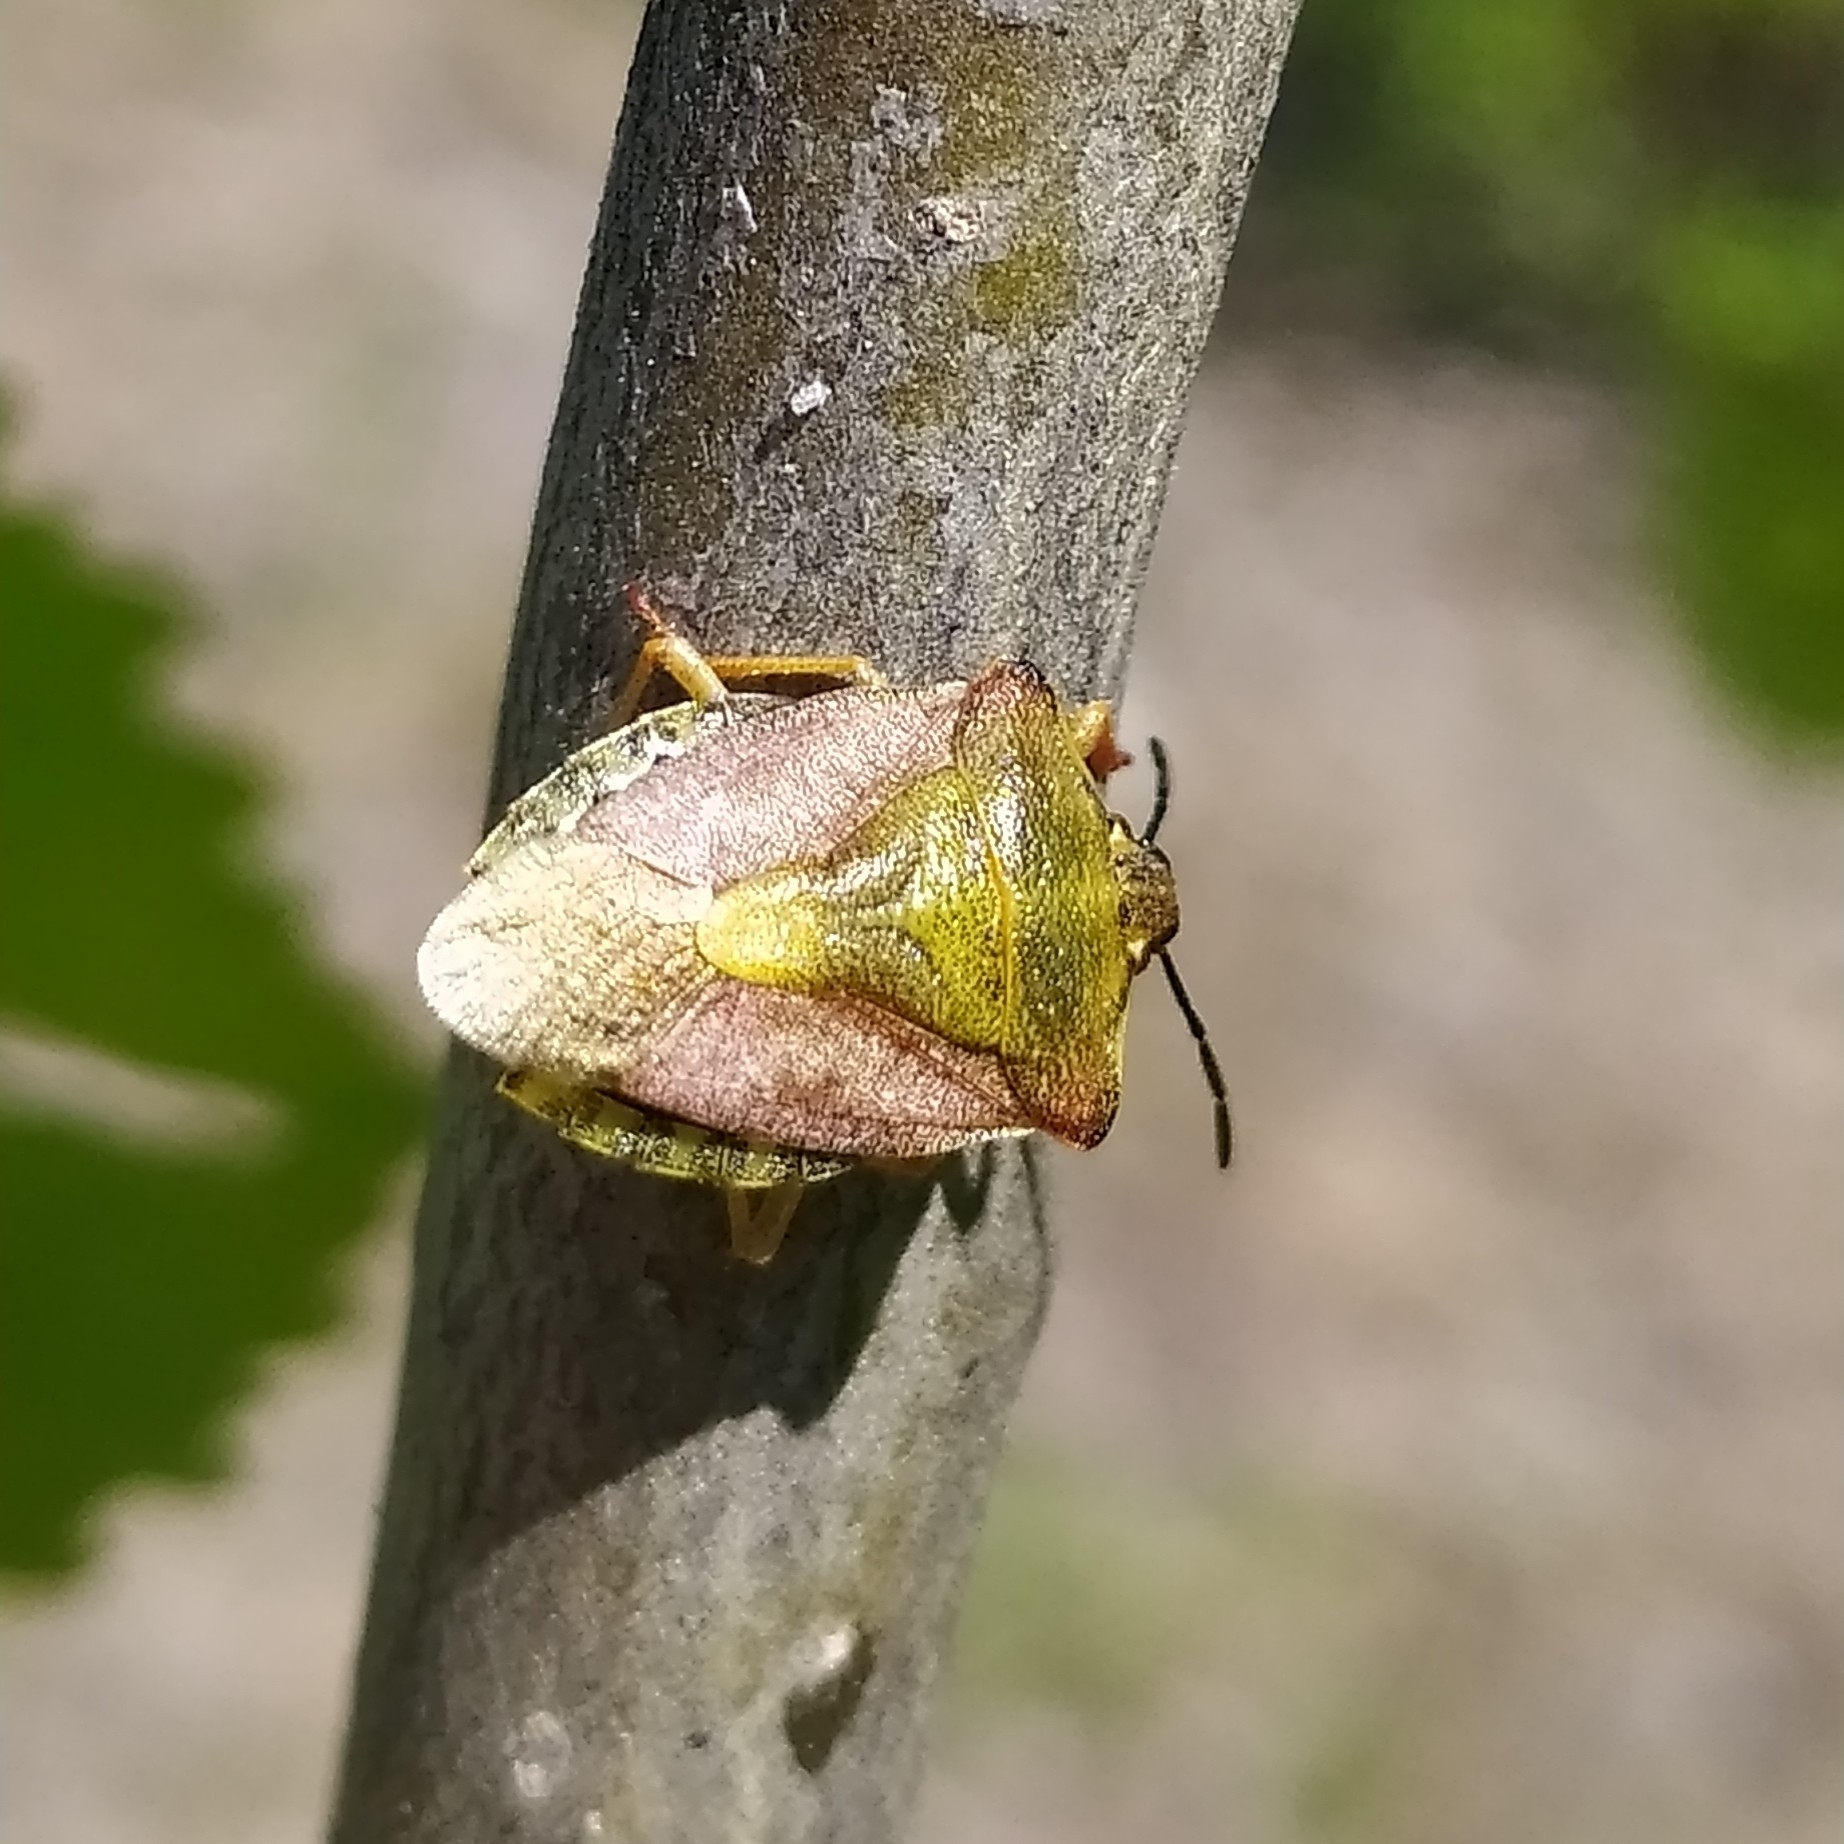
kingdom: Animalia
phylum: Arthropoda
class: Insecta
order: Hemiptera
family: Pentatomidae
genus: Carpocoris
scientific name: Carpocoris purpureipennis
